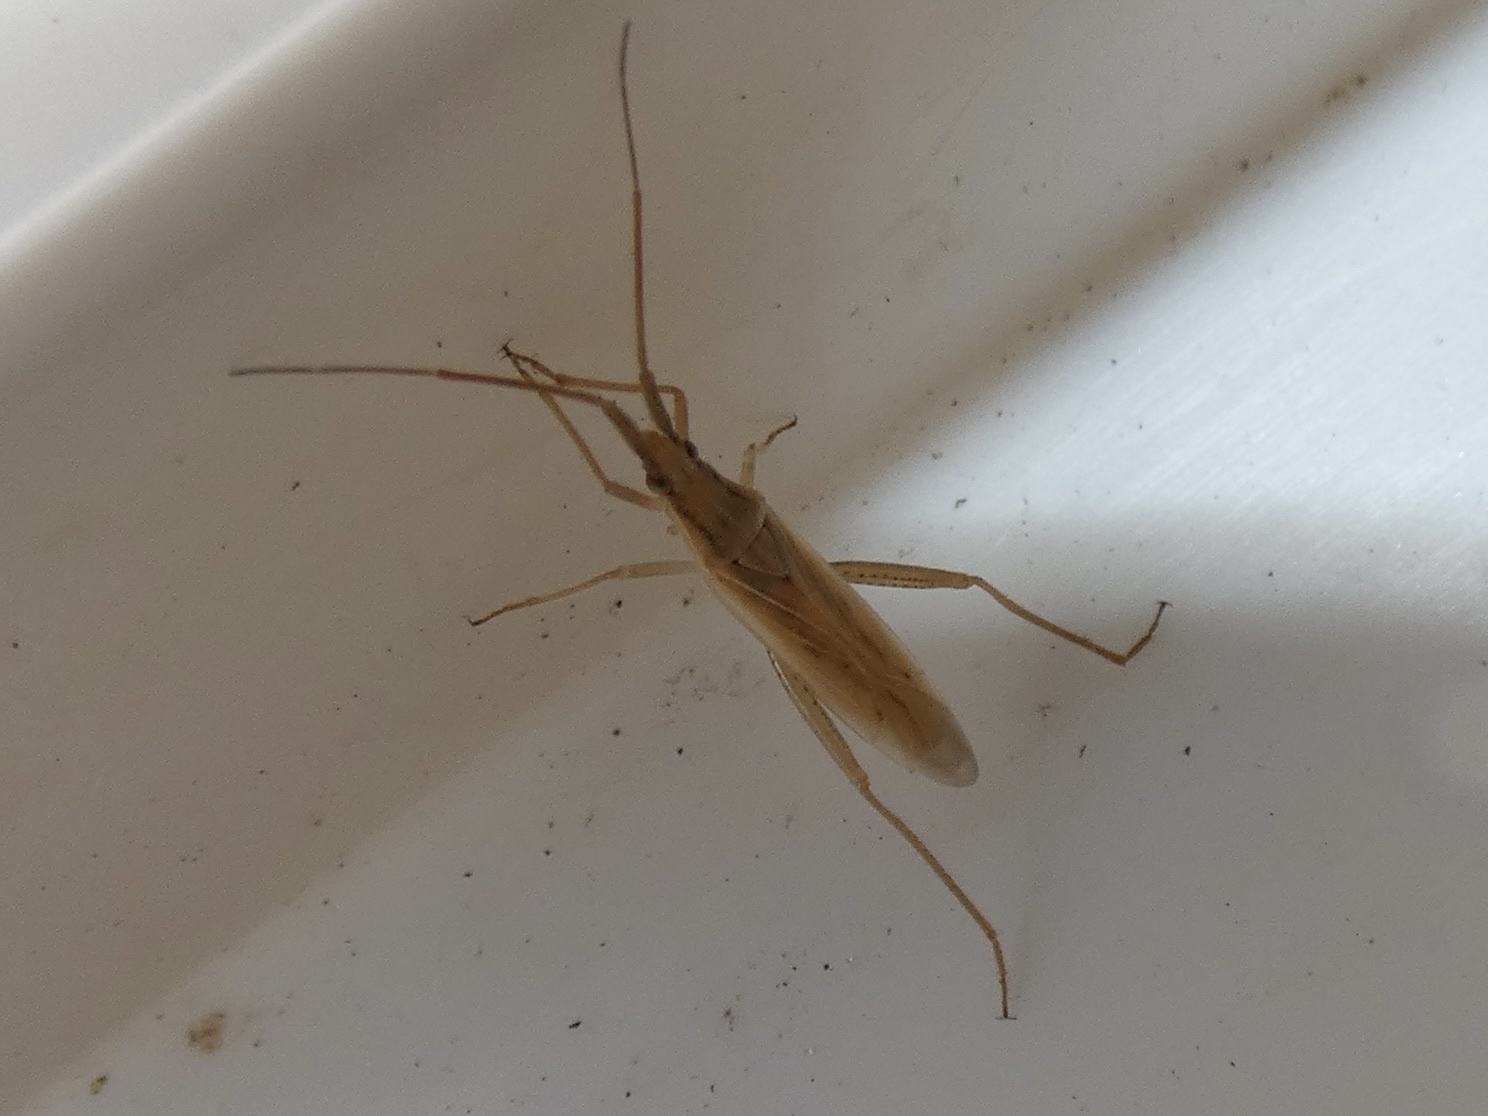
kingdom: Animalia
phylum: Arthropoda
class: Insecta
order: Hemiptera
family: Miridae
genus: Stenodema
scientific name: Stenodema laevigata
